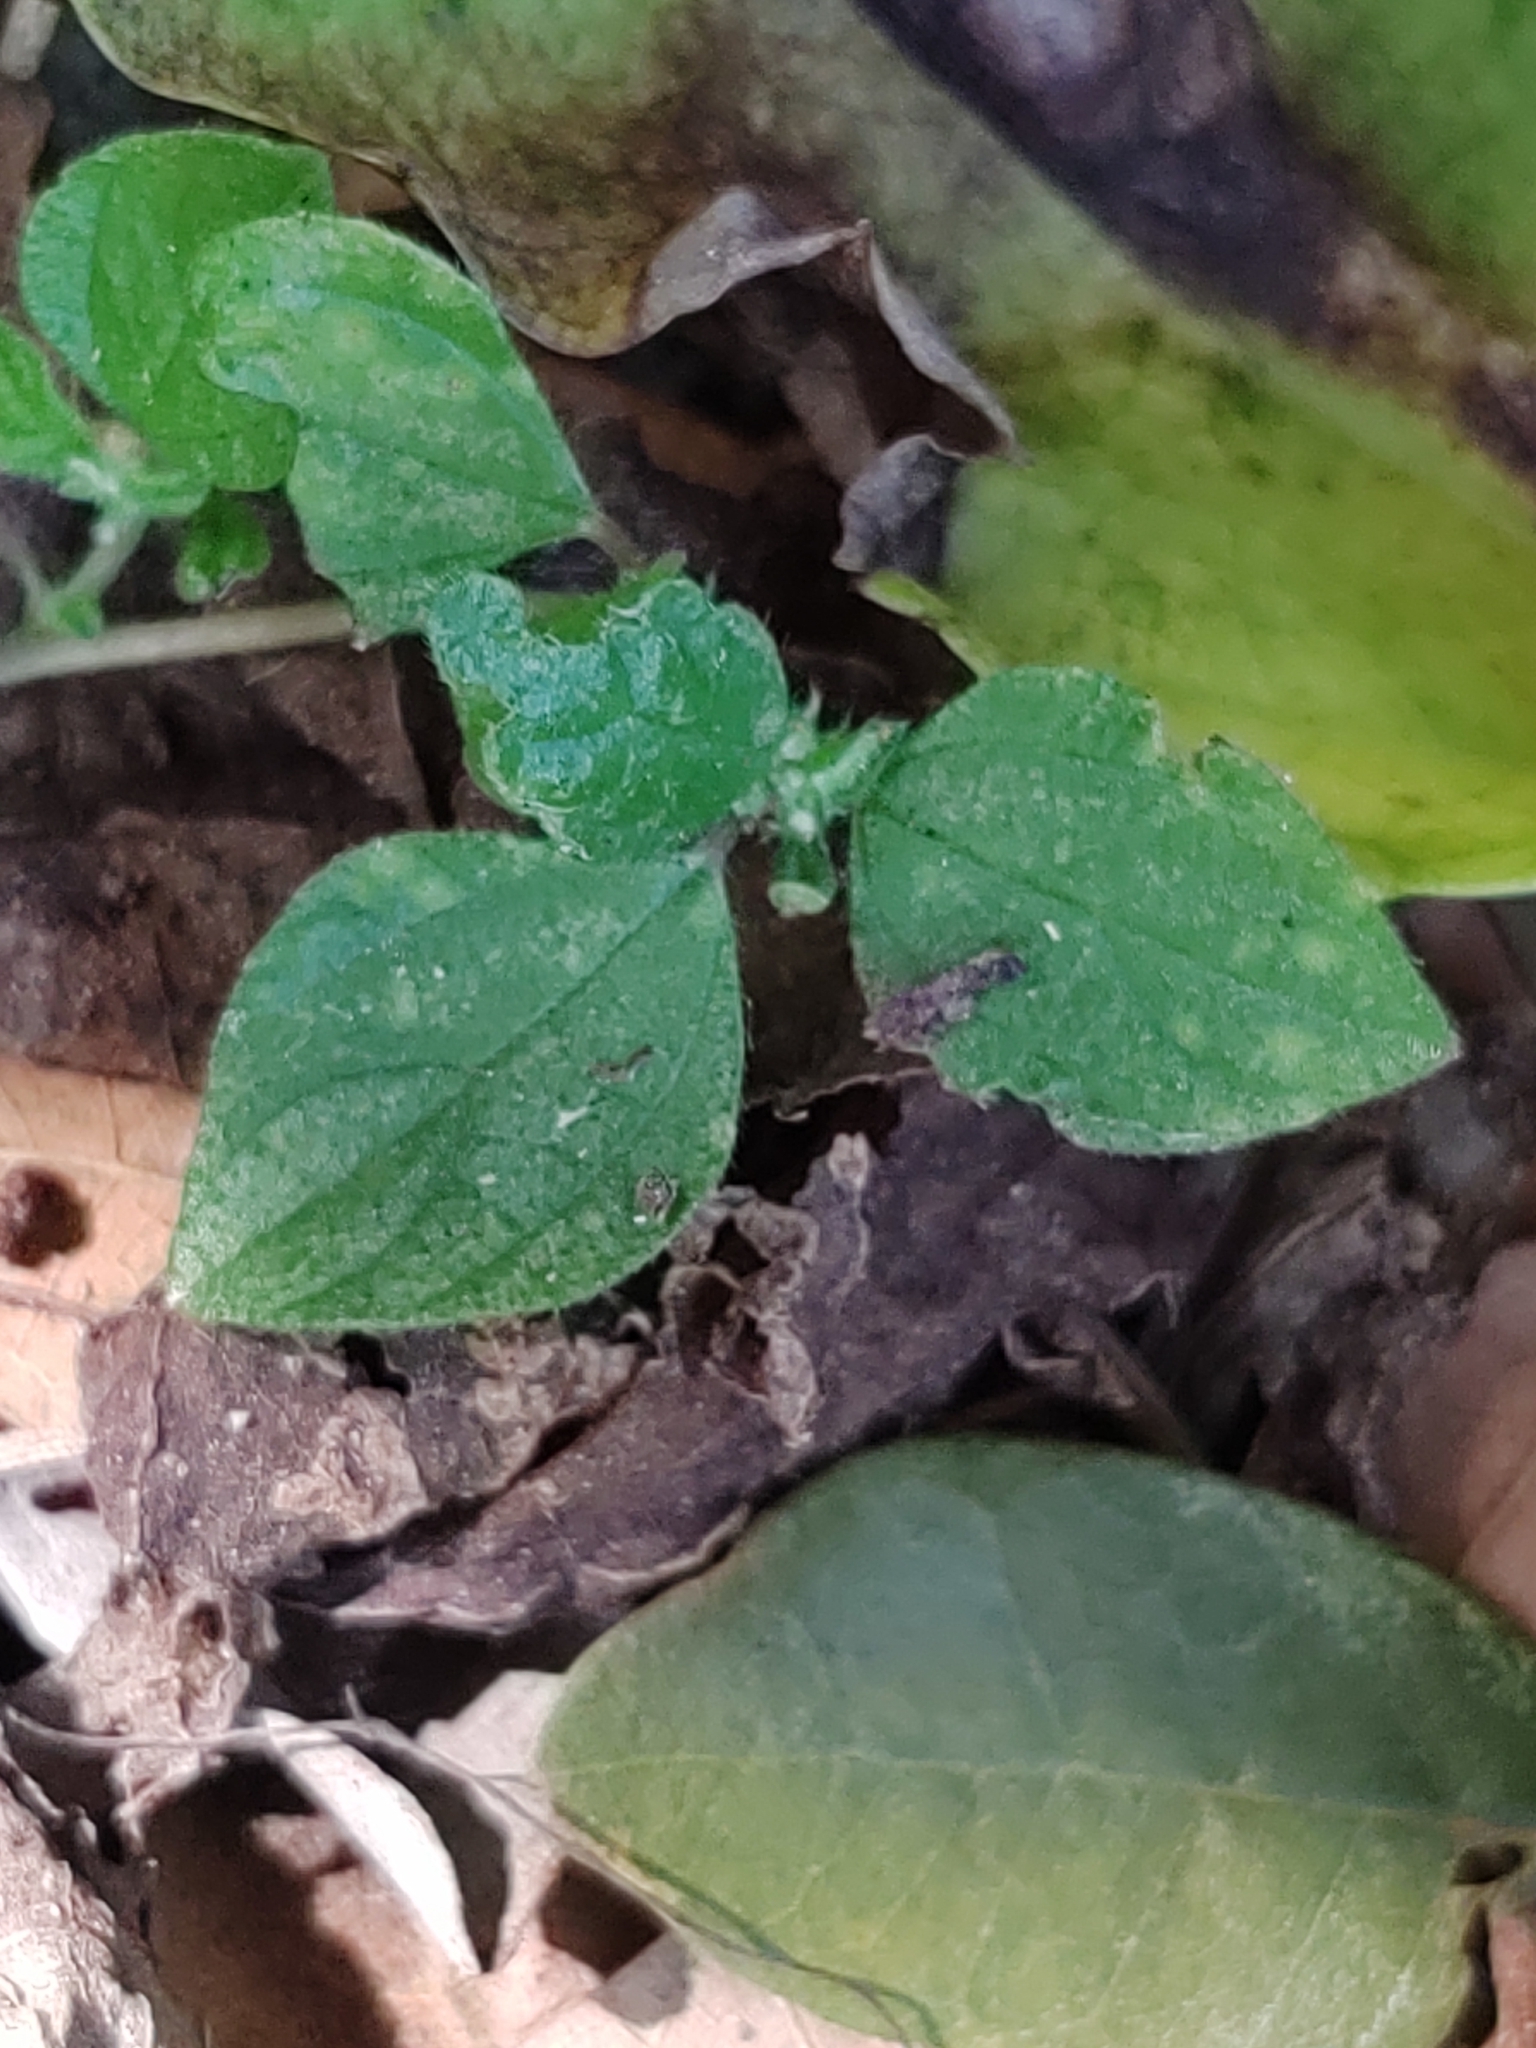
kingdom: Plantae
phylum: Tracheophyta
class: Magnoliopsida
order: Rosales
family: Urticaceae
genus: Rousselia
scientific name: Rousselia humilis
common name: Shineseed
